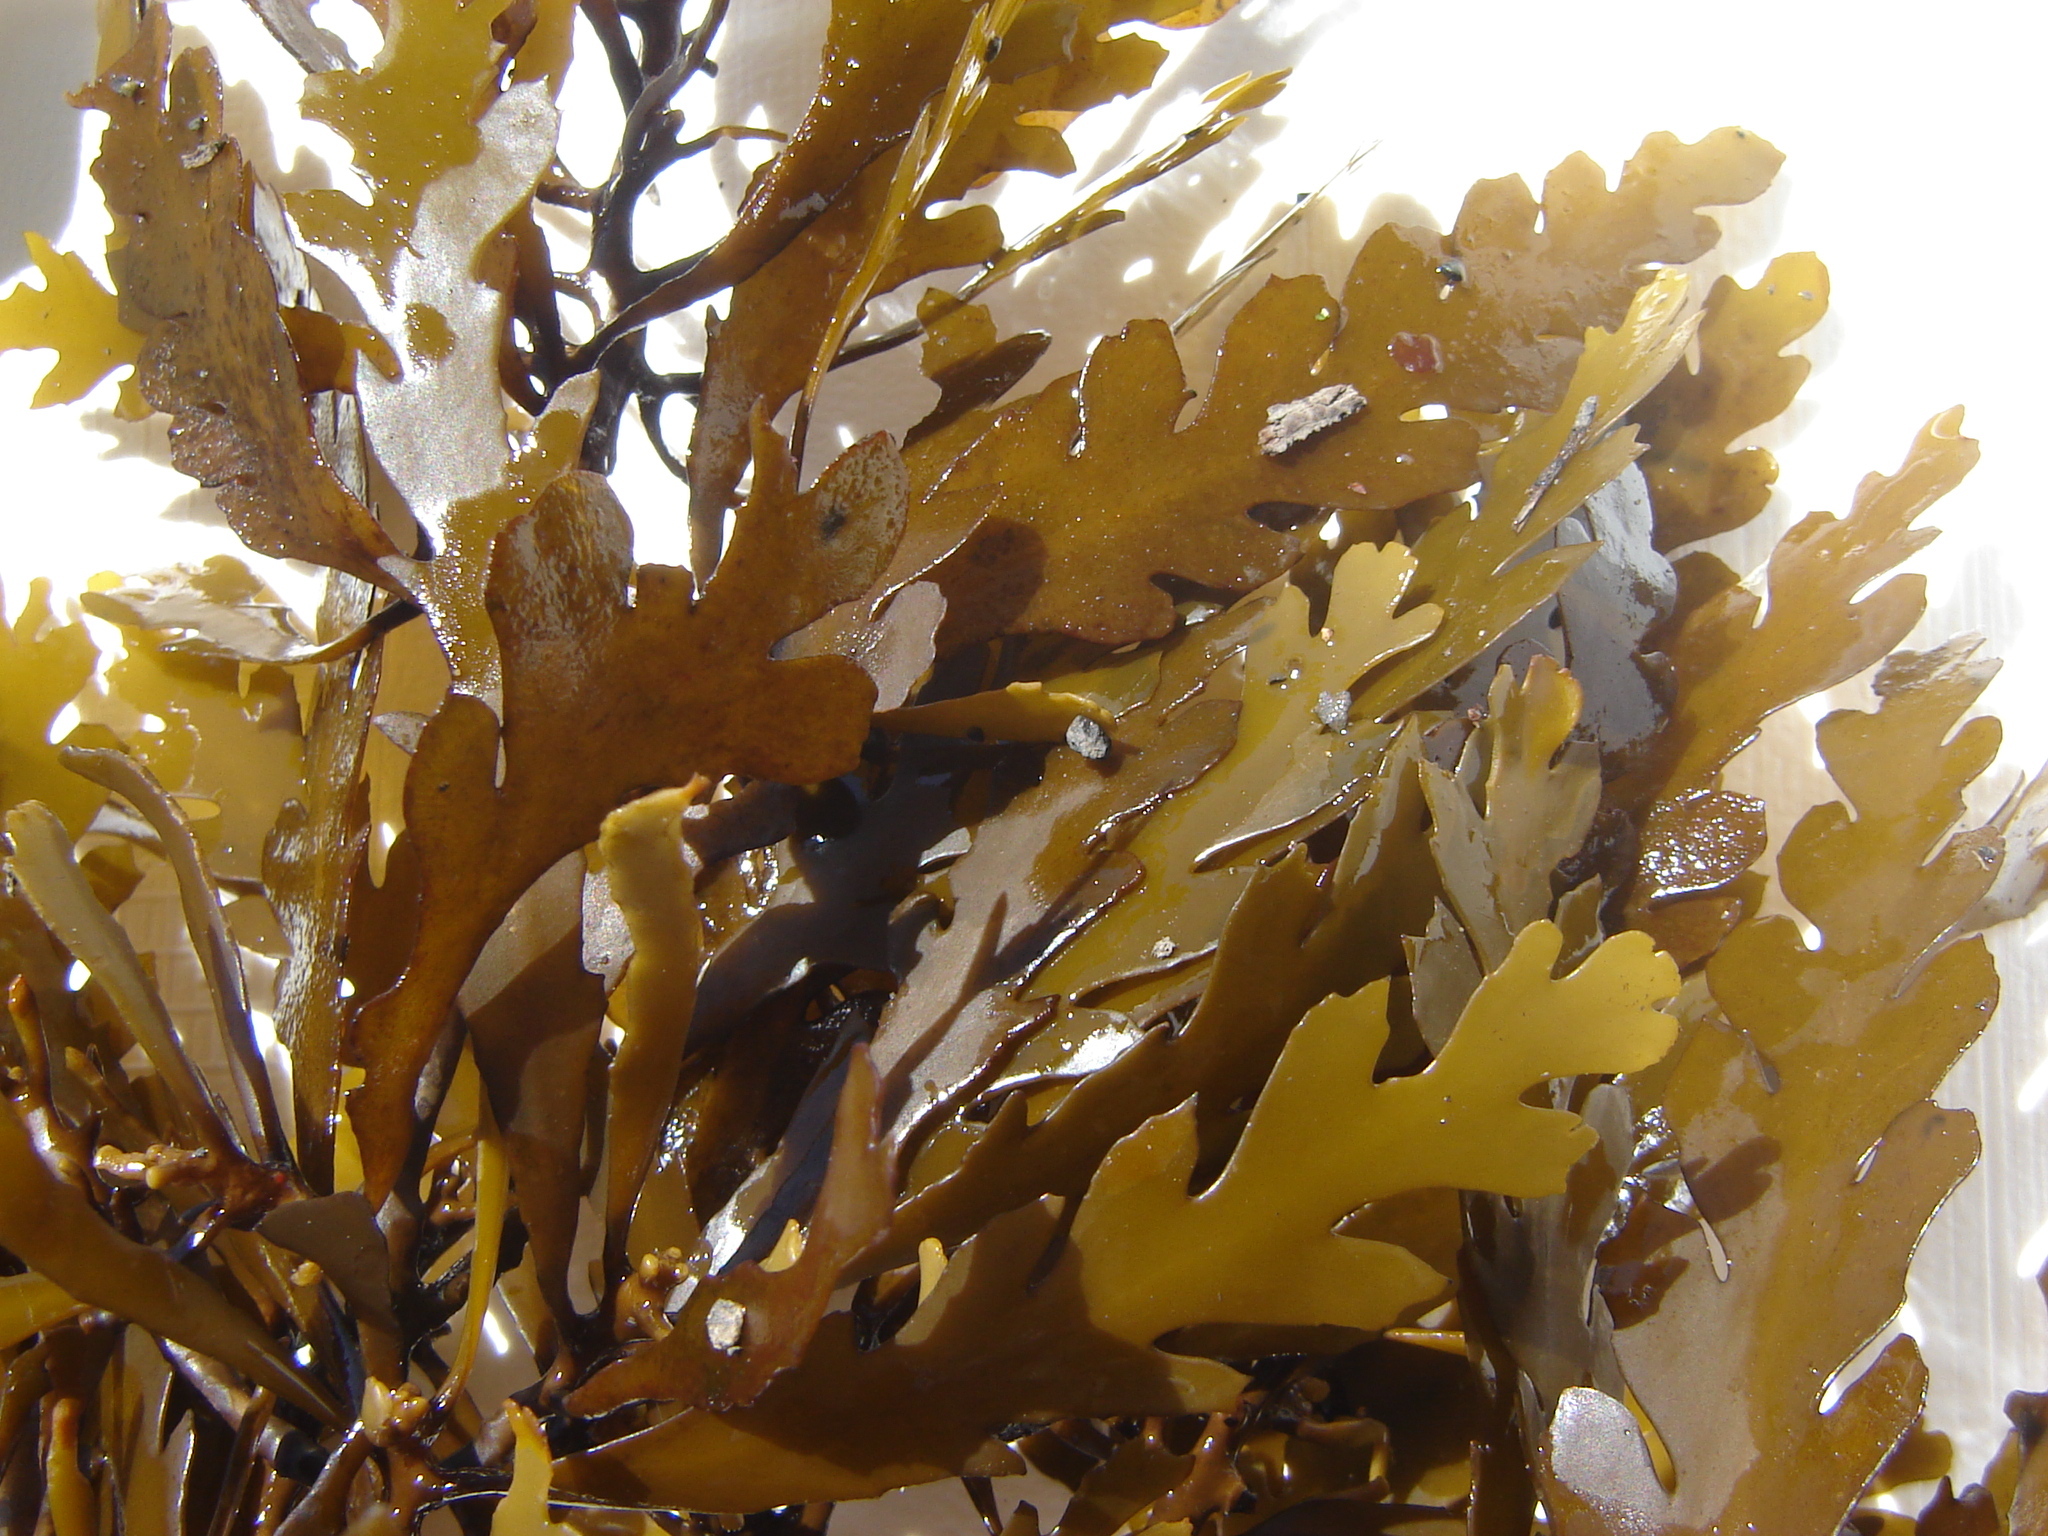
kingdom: Chromista
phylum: Ochrophyta
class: Phaeophyceae
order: Fucales
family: Sargassaceae
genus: Landsburgia
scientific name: Landsburgia quercifolia
